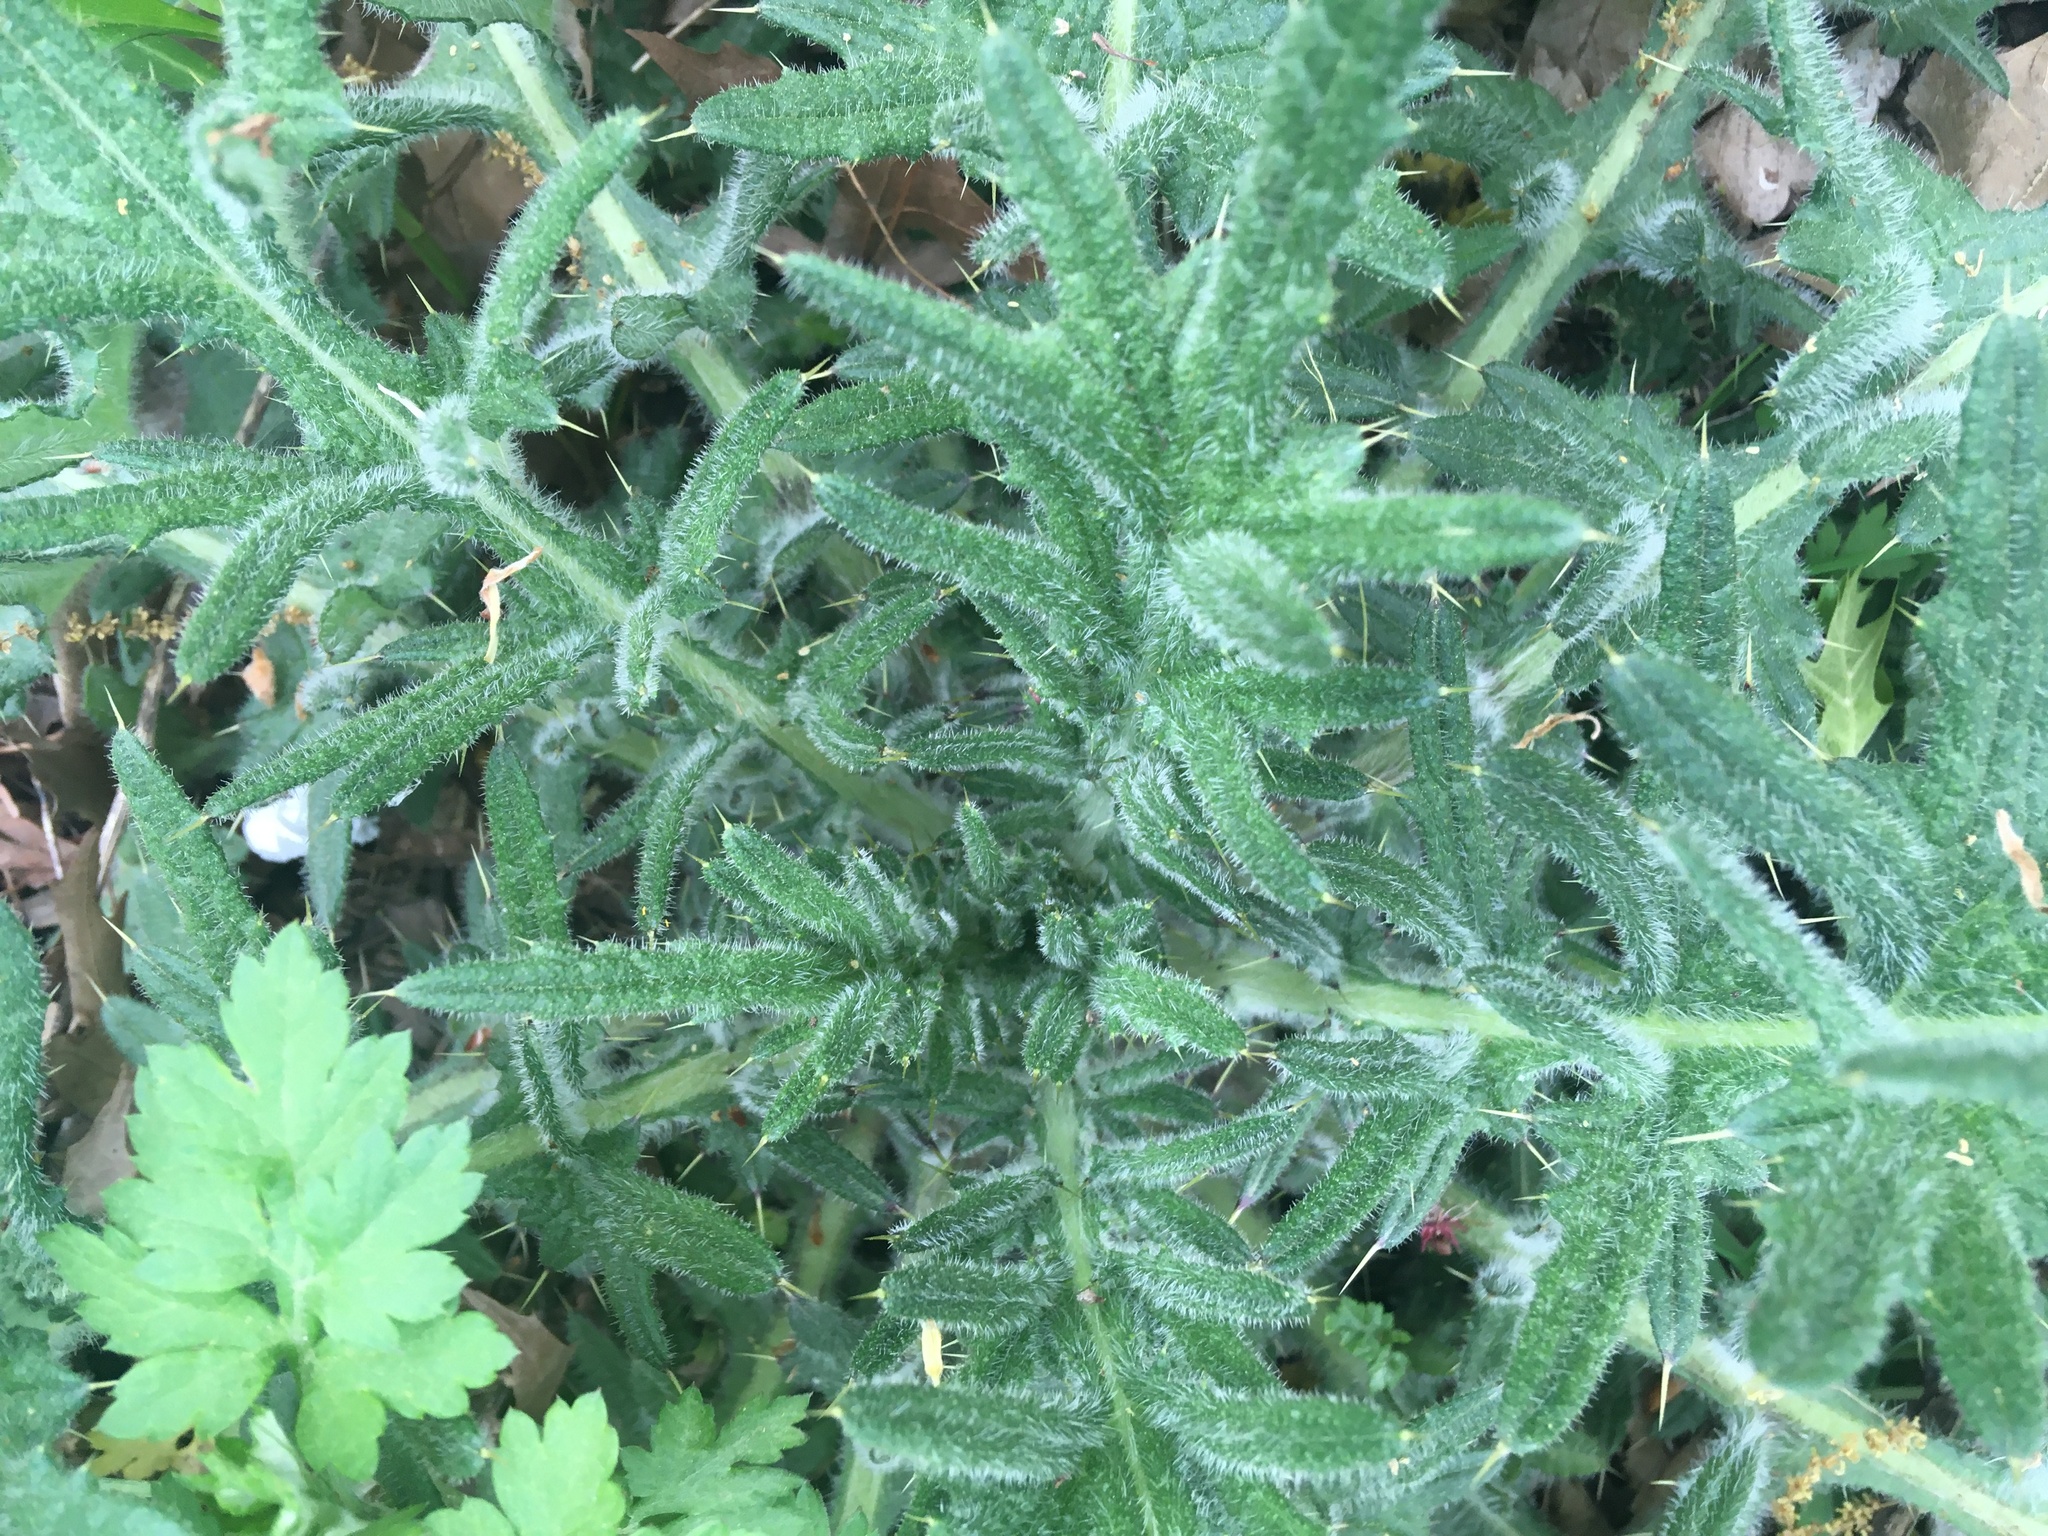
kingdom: Plantae
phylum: Tracheophyta
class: Magnoliopsida
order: Asterales
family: Asteraceae
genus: Cirsium
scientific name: Cirsium vulgare
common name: Bull thistle
